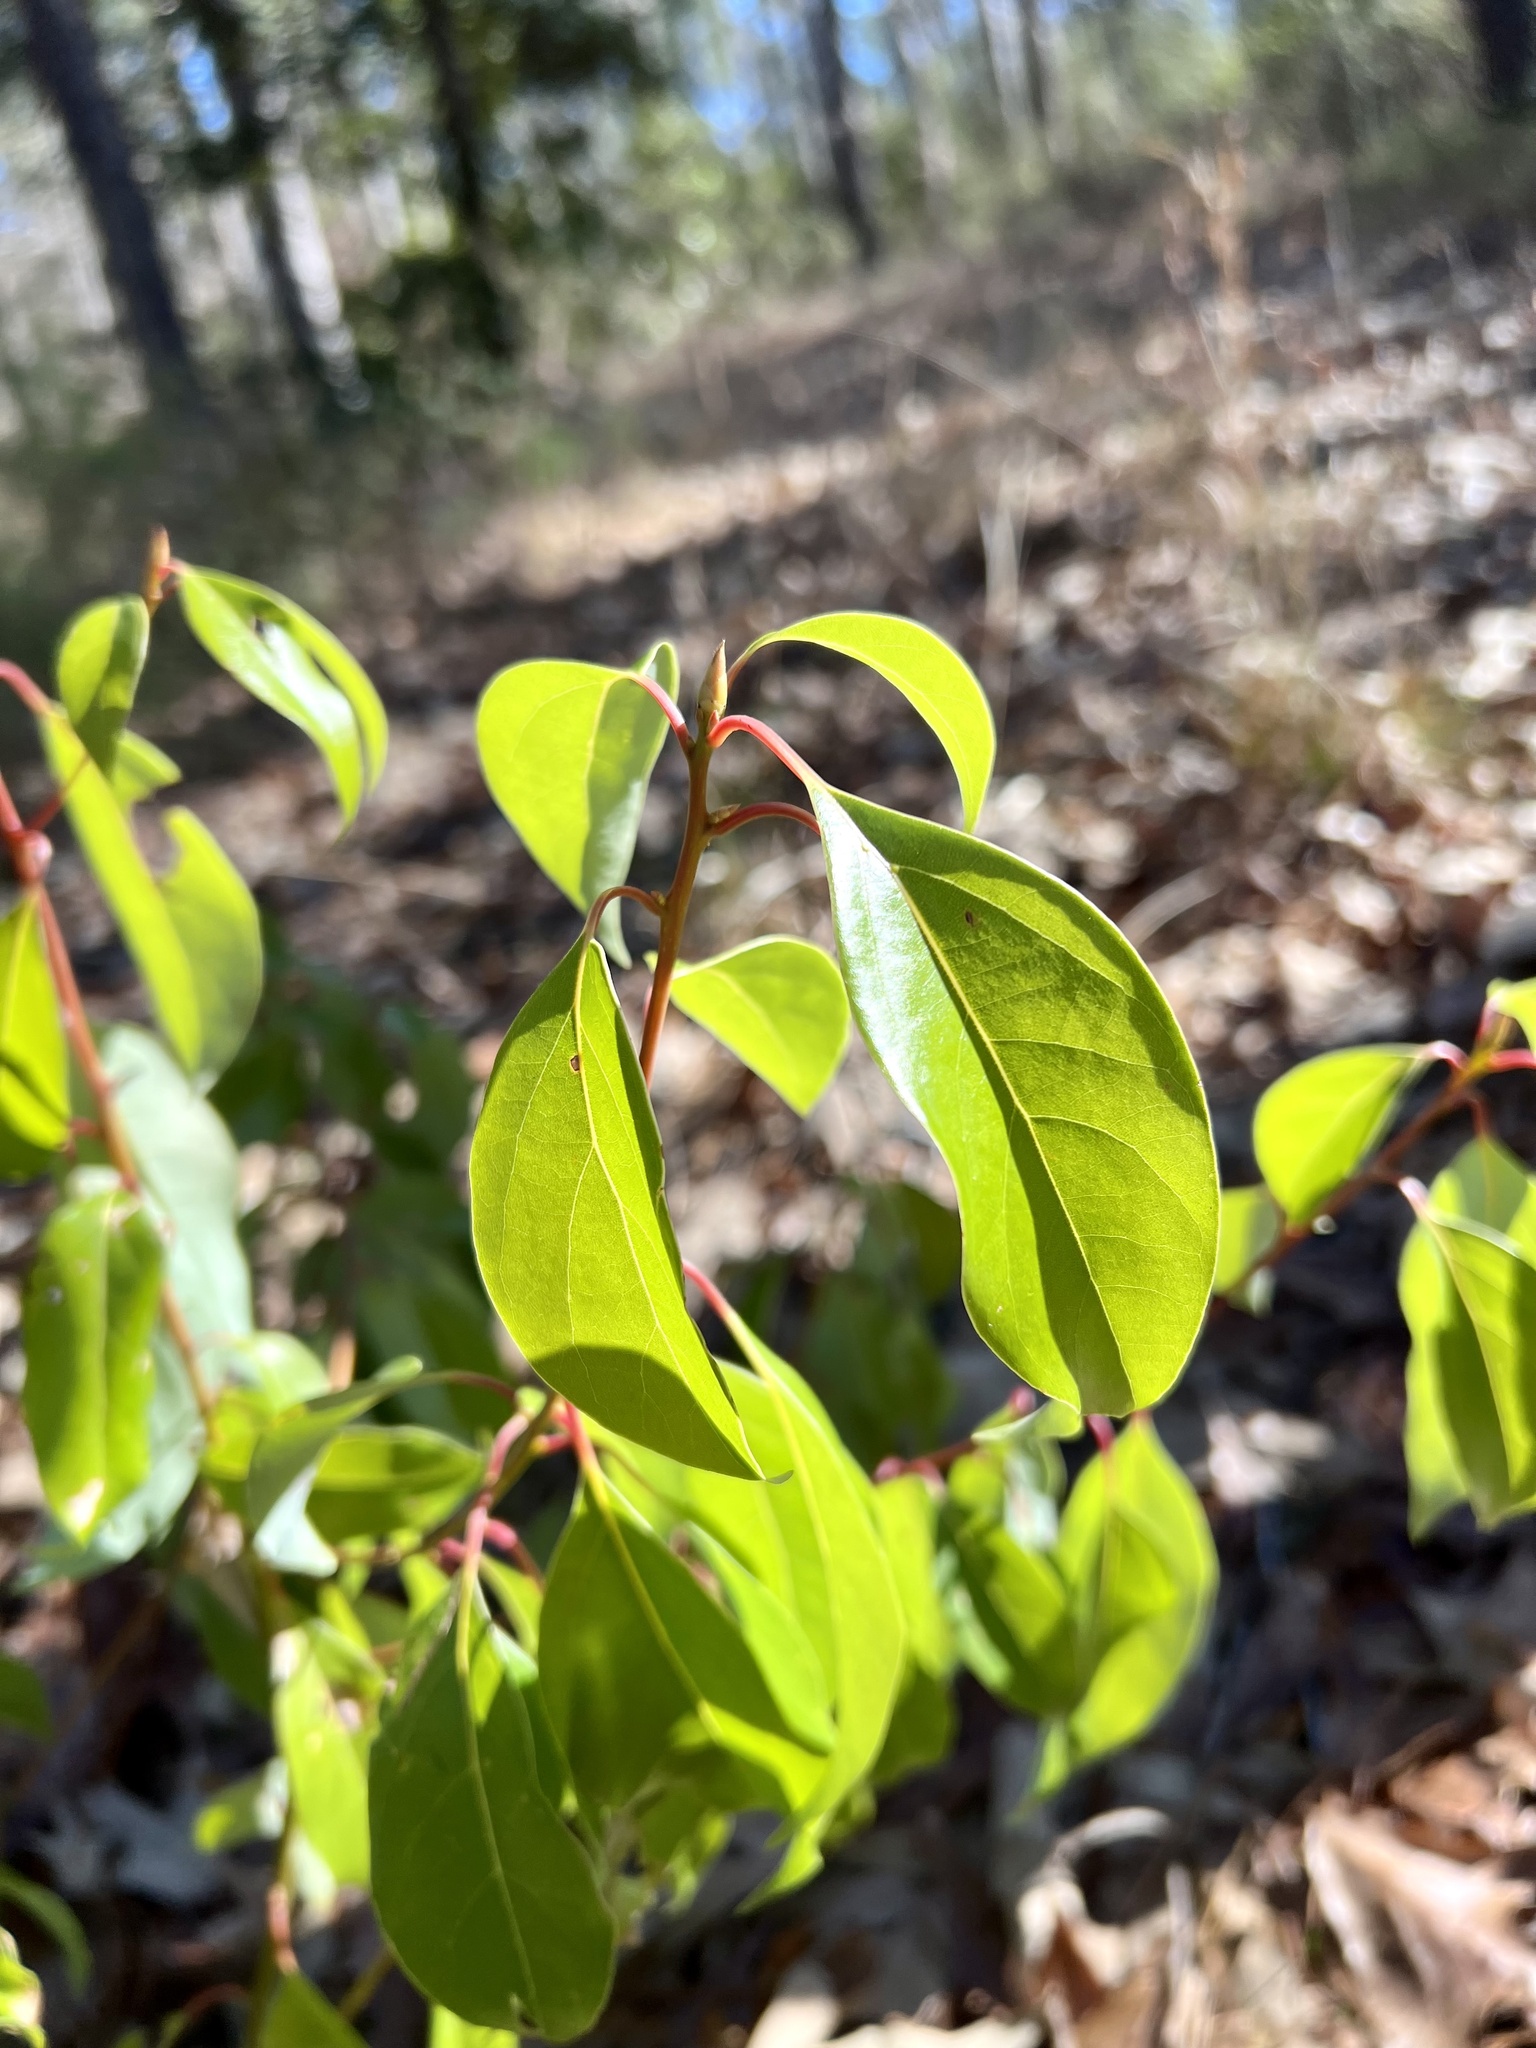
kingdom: Plantae
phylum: Tracheophyta
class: Magnoliopsida
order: Laurales
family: Lauraceae
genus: Cinnamomum
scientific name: Cinnamomum camphora
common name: Camphortree
